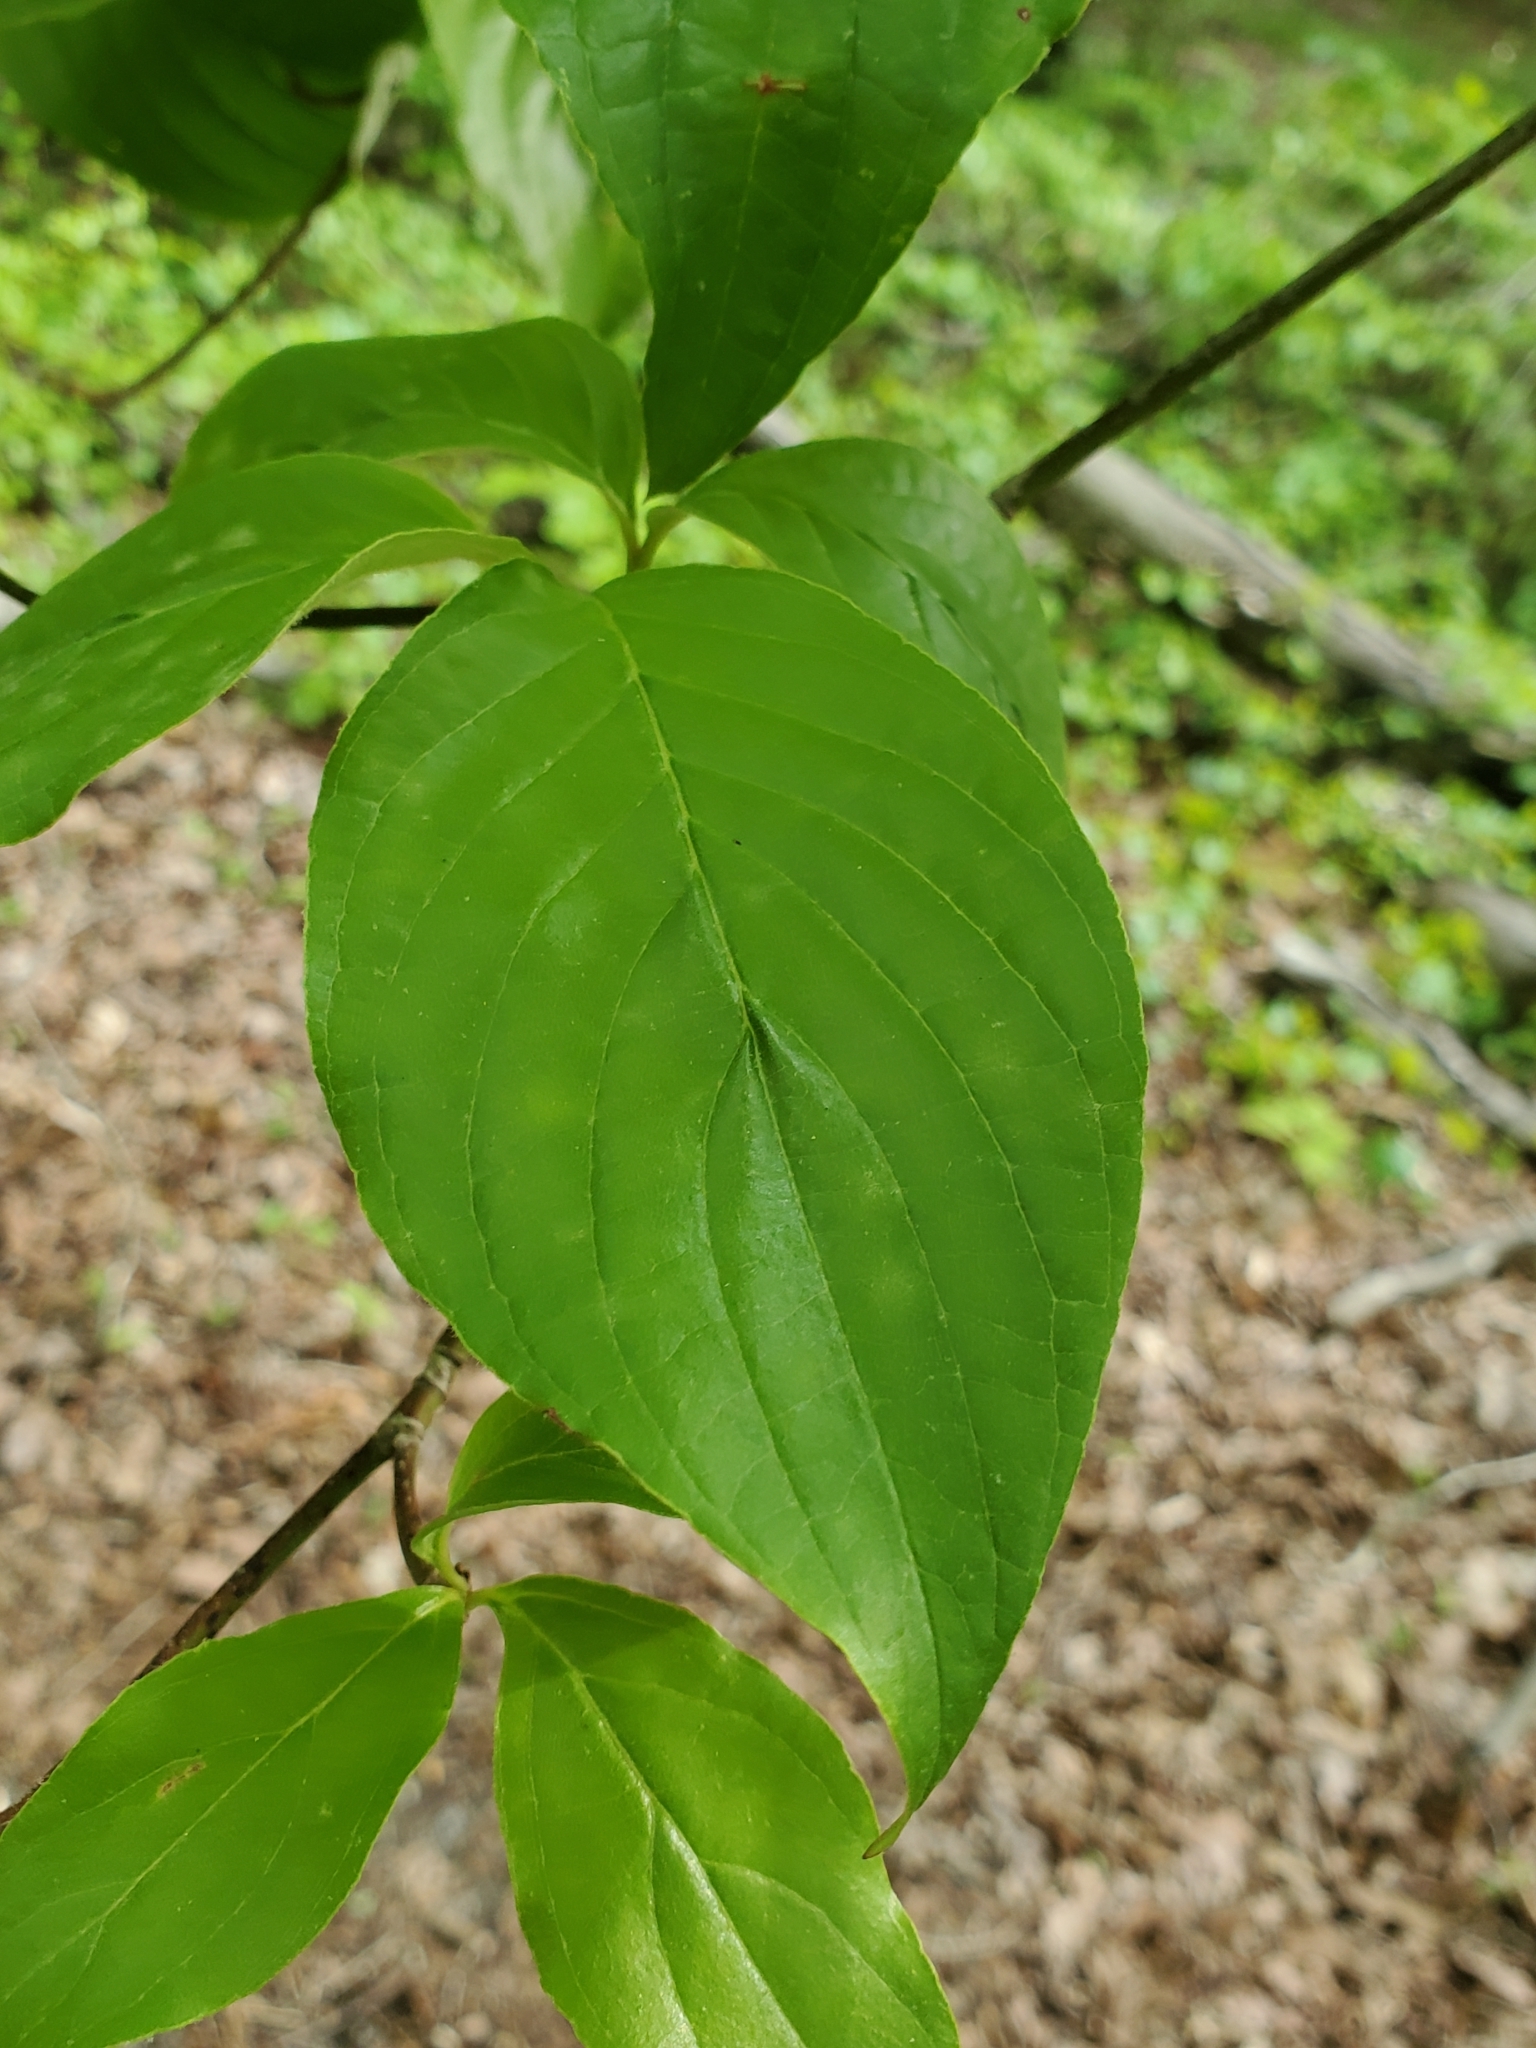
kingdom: Plantae
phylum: Tracheophyta
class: Magnoliopsida
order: Cornales
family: Cornaceae
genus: Cornus
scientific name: Cornus florida
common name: Flowering dogwood
